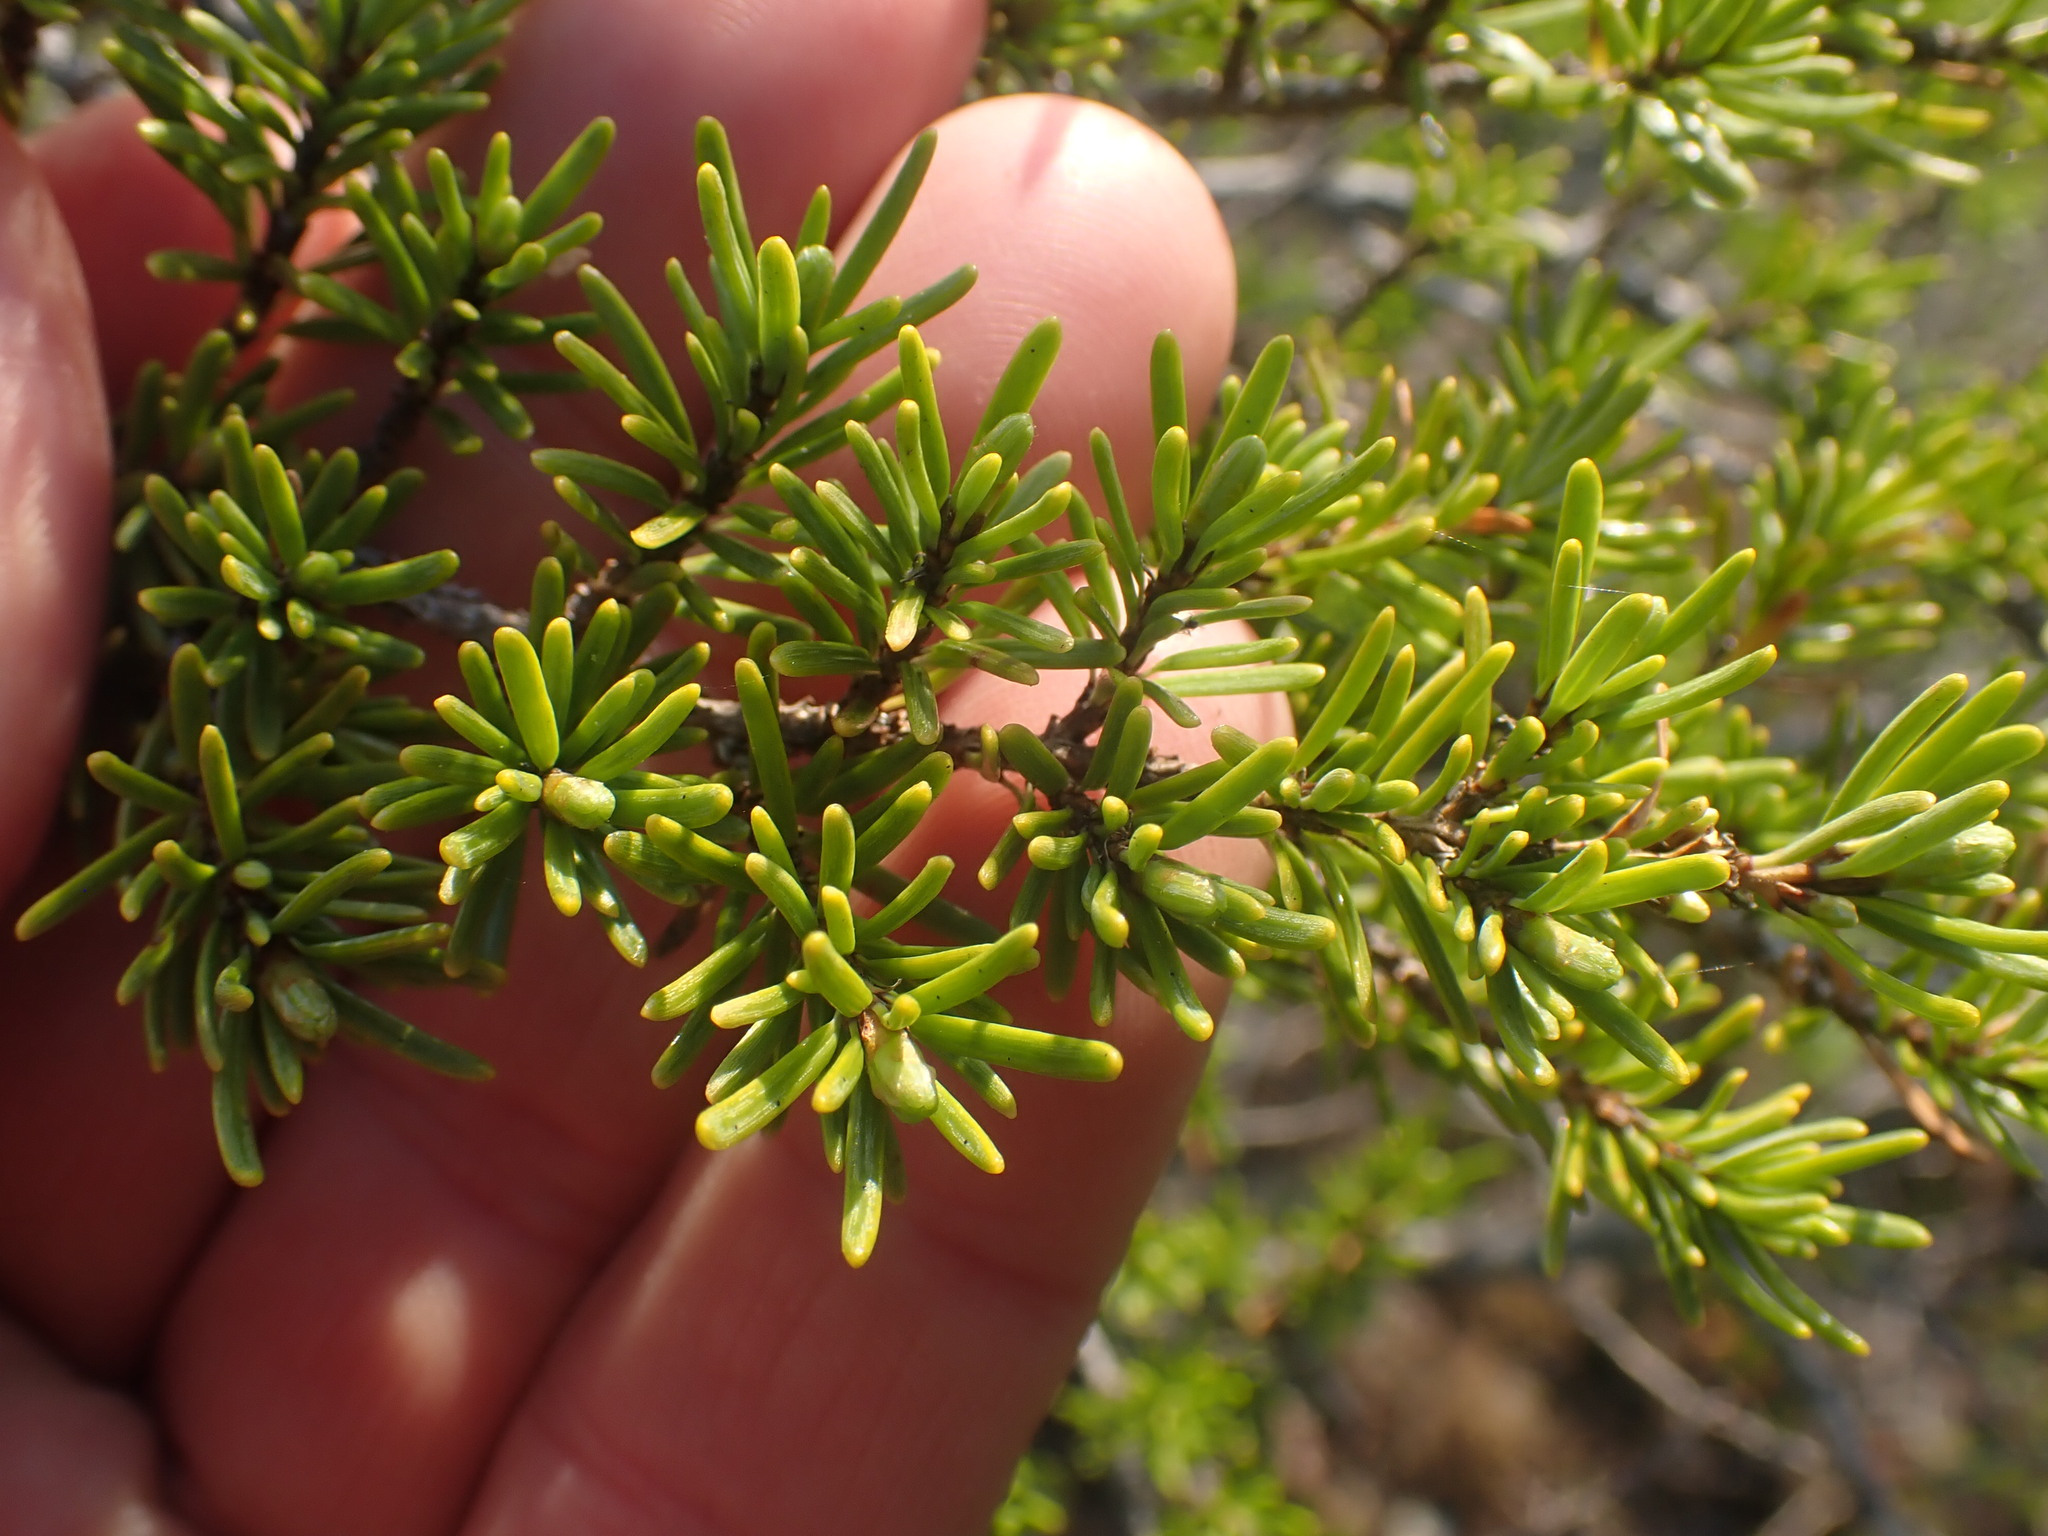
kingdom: Plantae
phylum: Tracheophyta
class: Pinopsida
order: Pinales
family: Pinaceae
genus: Tsuga
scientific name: Tsuga mertensiana
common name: Mountain hemlock
